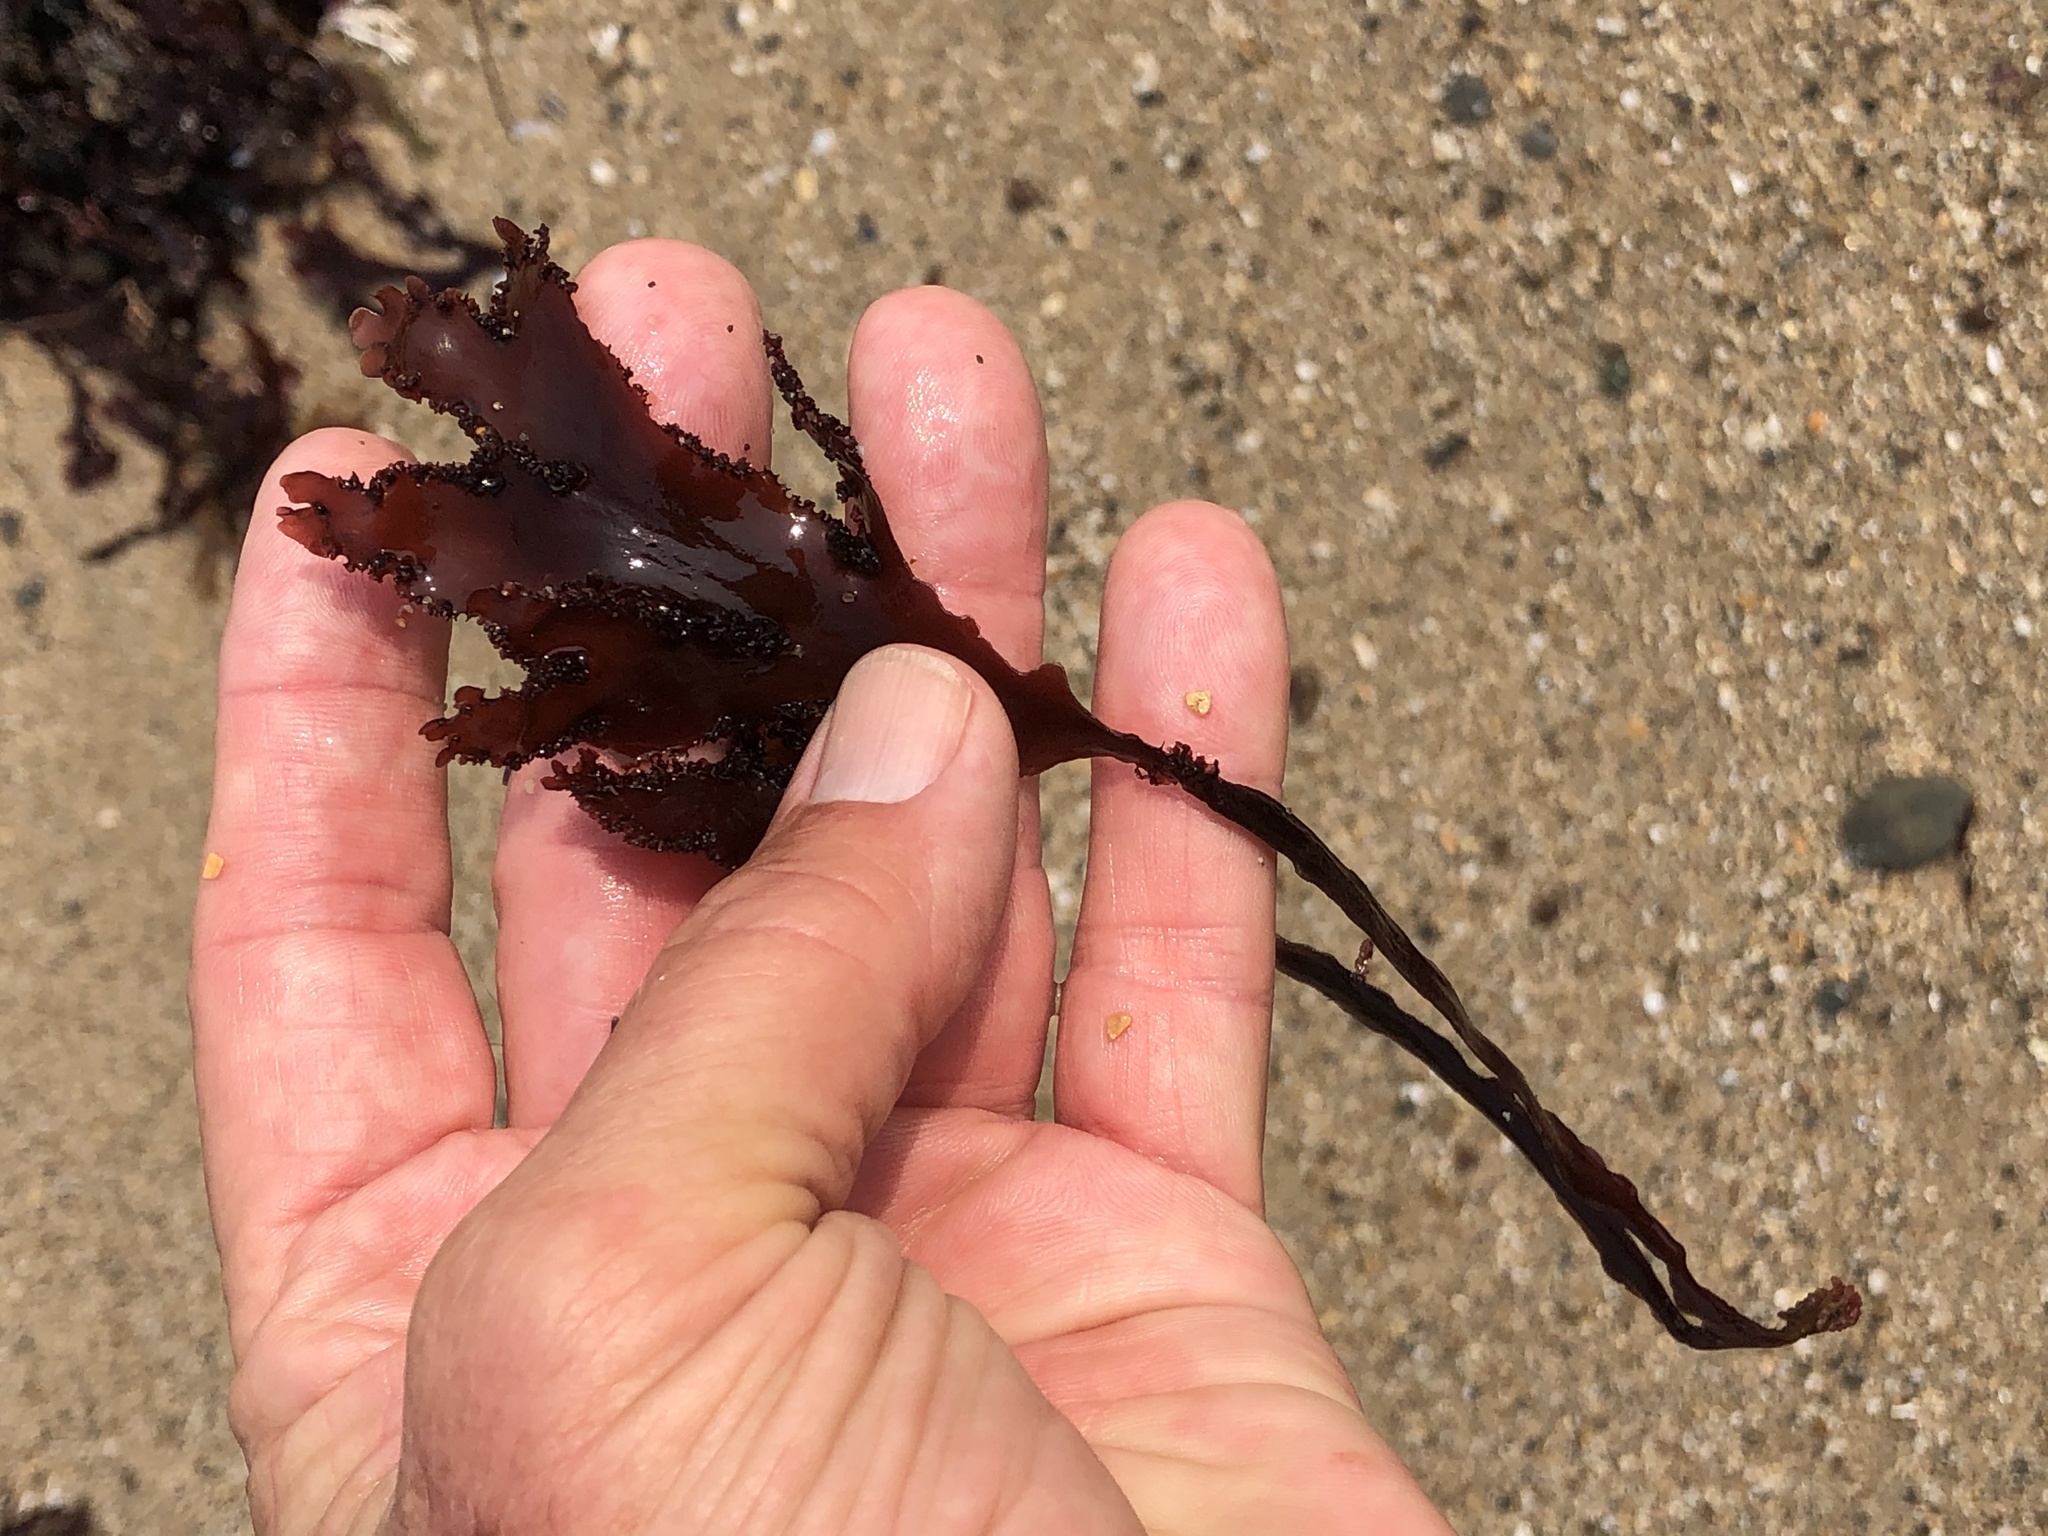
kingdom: Plantae
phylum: Rhodophyta
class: Florideophyceae
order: Ceramiales
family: Delesseriaceae
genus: Cryptopleura
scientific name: Cryptopleura ruprechtiana
